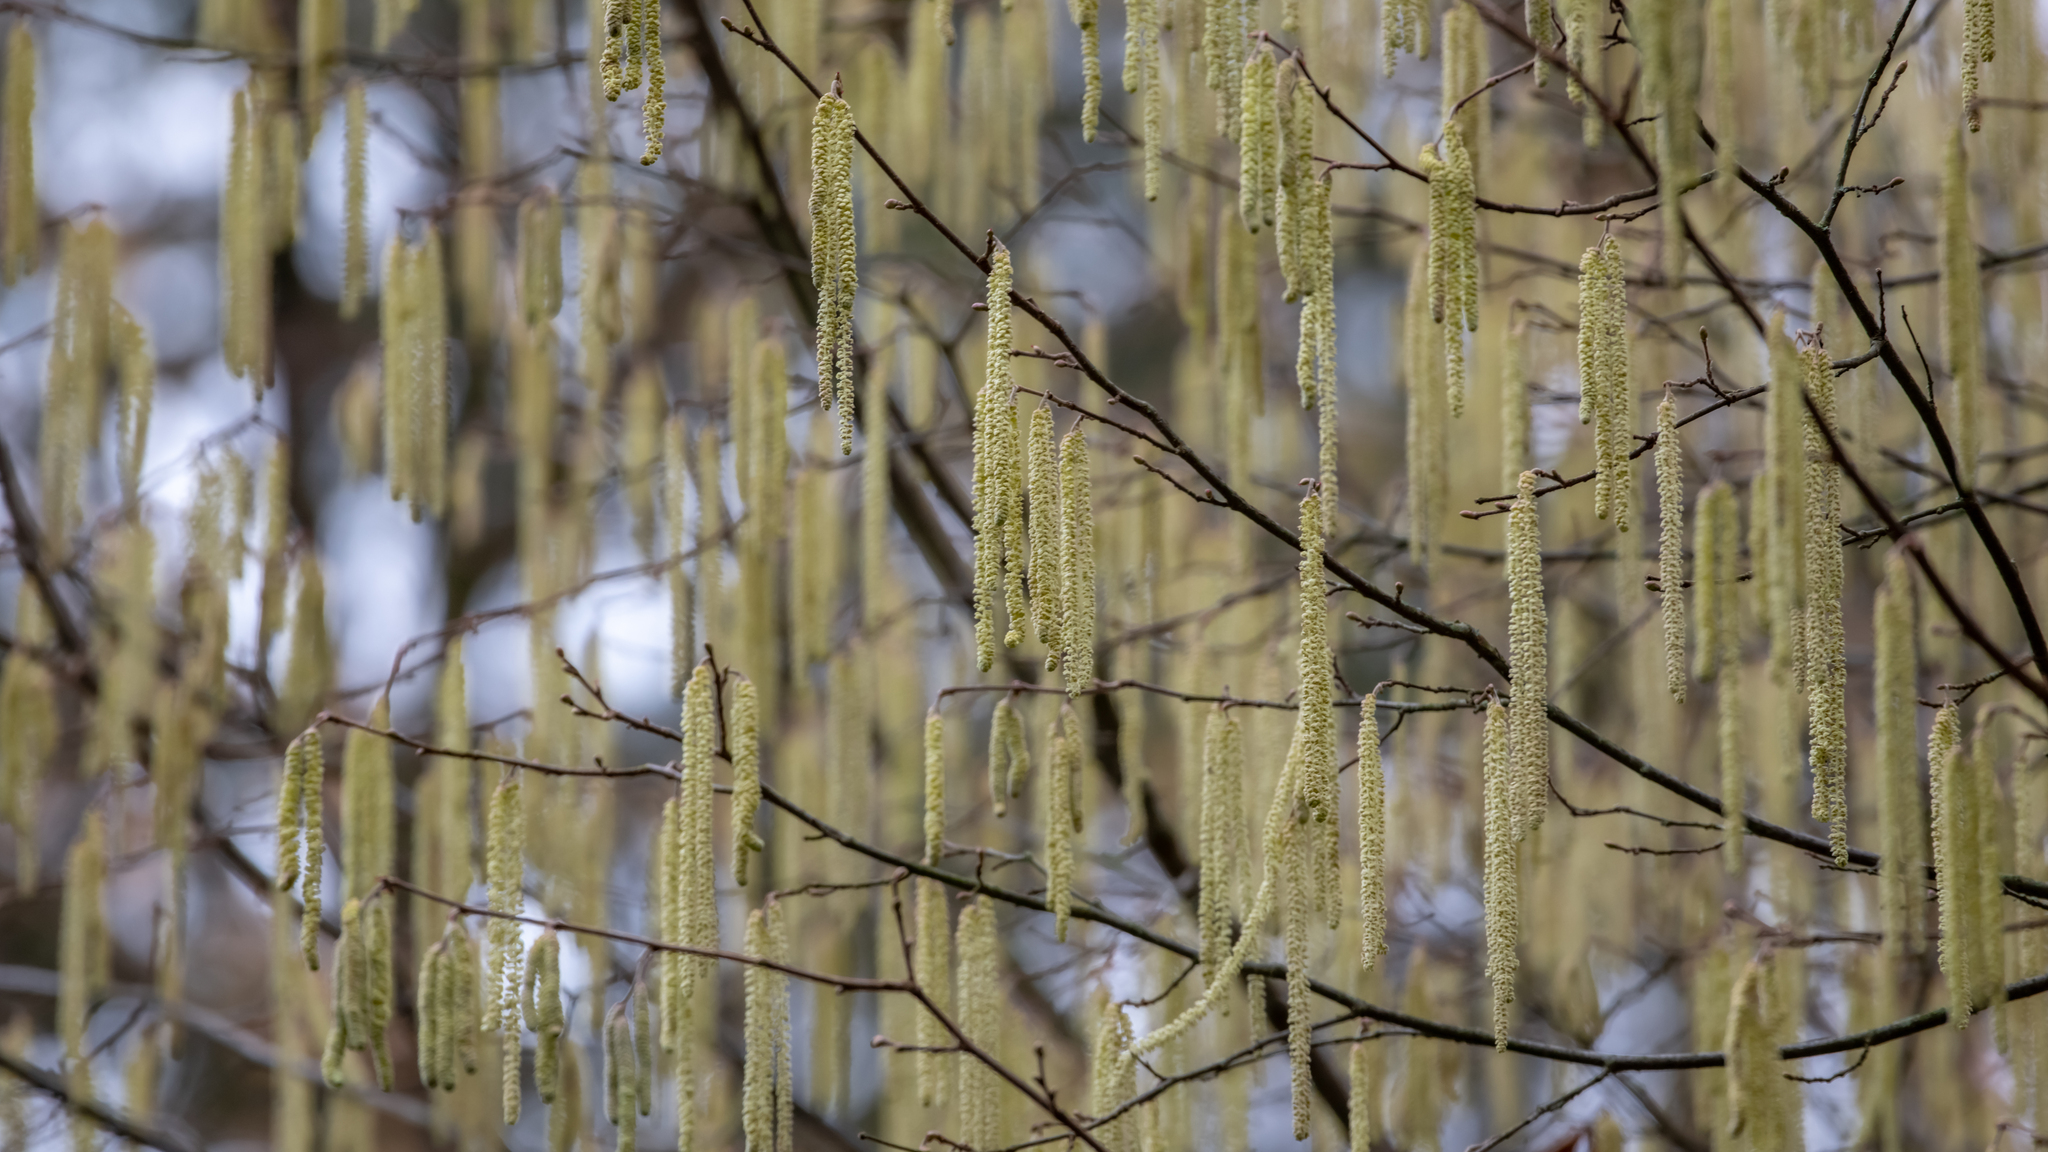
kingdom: Plantae
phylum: Tracheophyta
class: Magnoliopsida
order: Fagales
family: Betulaceae
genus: Corylus
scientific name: Corylus avellana
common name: European hazel
